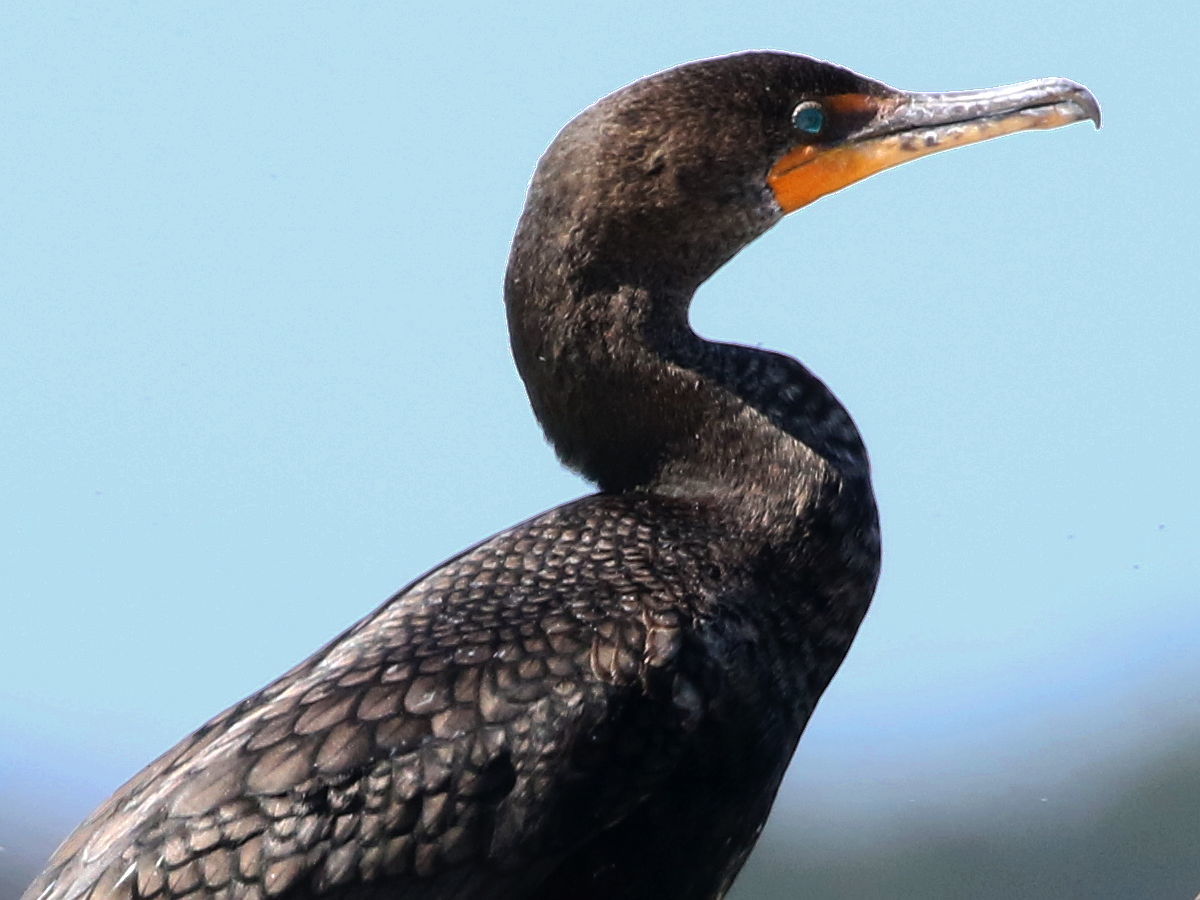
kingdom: Animalia
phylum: Chordata
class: Aves
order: Suliformes
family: Phalacrocoracidae
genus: Phalacrocorax
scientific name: Phalacrocorax auritus
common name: Double-crested cormorant
